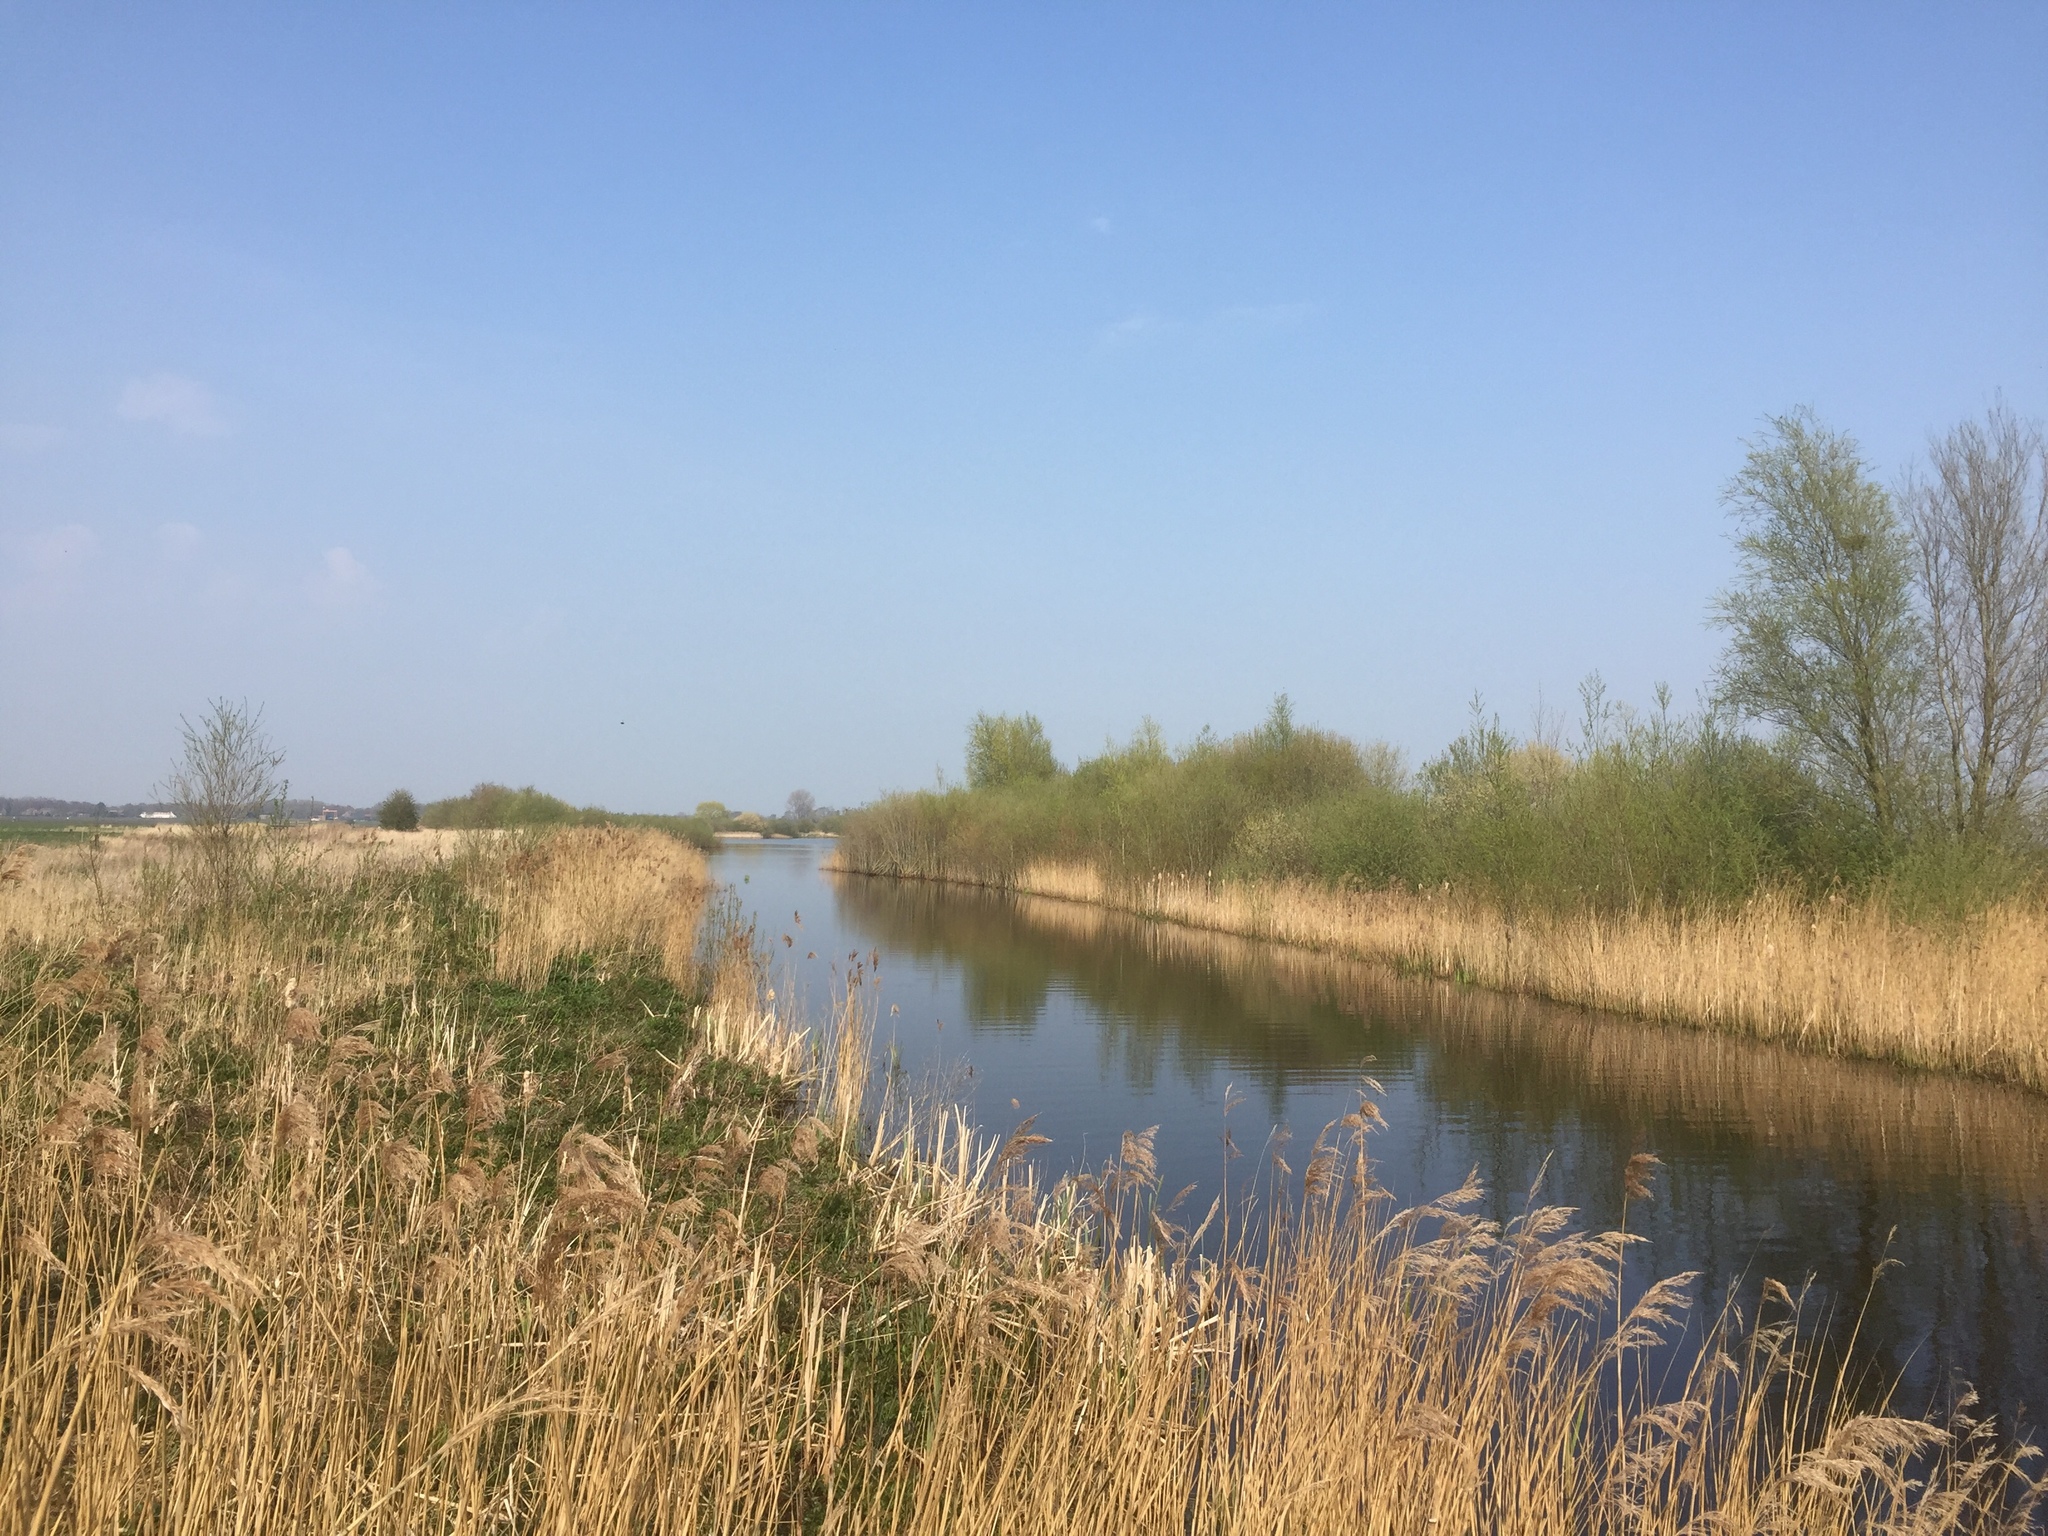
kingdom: Plantae
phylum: Tracheophyta
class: Liliopsida
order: Poales
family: Poaceae
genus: Phragmites
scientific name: Phragmites australis
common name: Common reed
